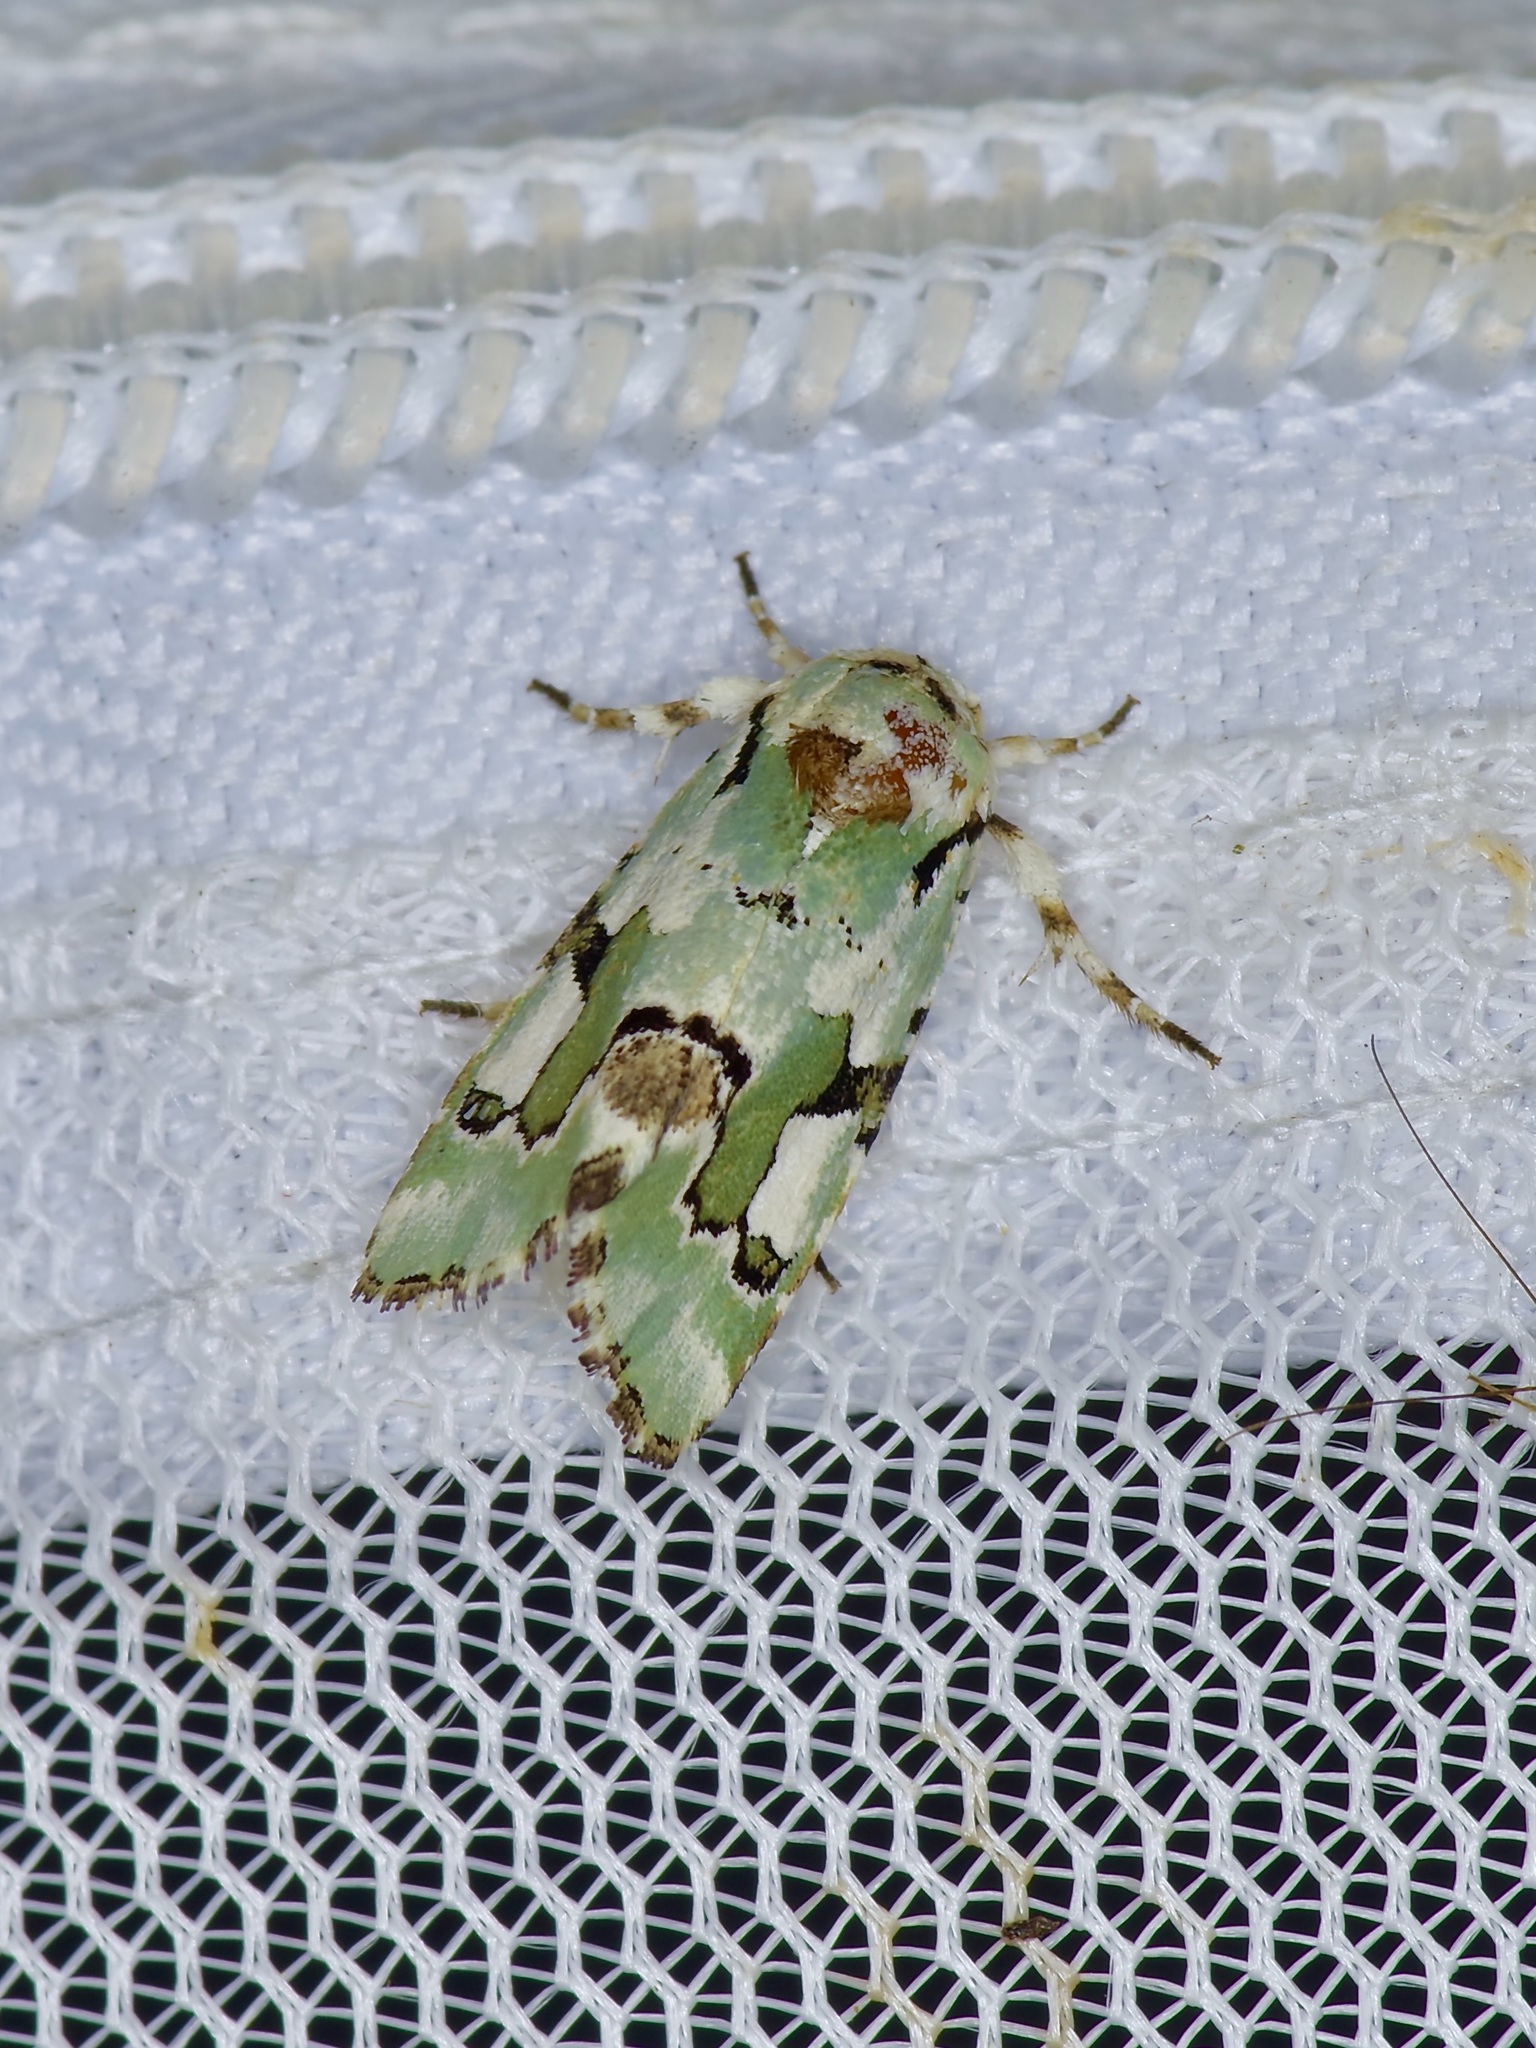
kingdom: Animalia
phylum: Arthropoda
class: Insecta
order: Lepidoptera
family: Noctuidae
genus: Emarginea
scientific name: Emarginea percara
